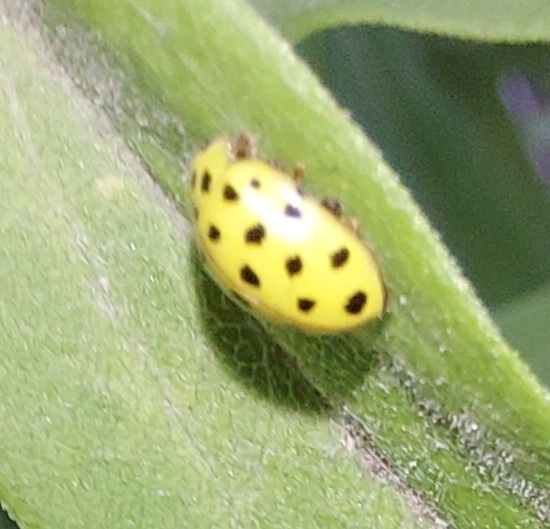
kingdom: Animalia
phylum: Arthropoda
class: Insecta
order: Coleoptera
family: Coccinellidae
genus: Psyllobora
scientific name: Psyllobora vigintiduopunctata
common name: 22-spot ladybird
